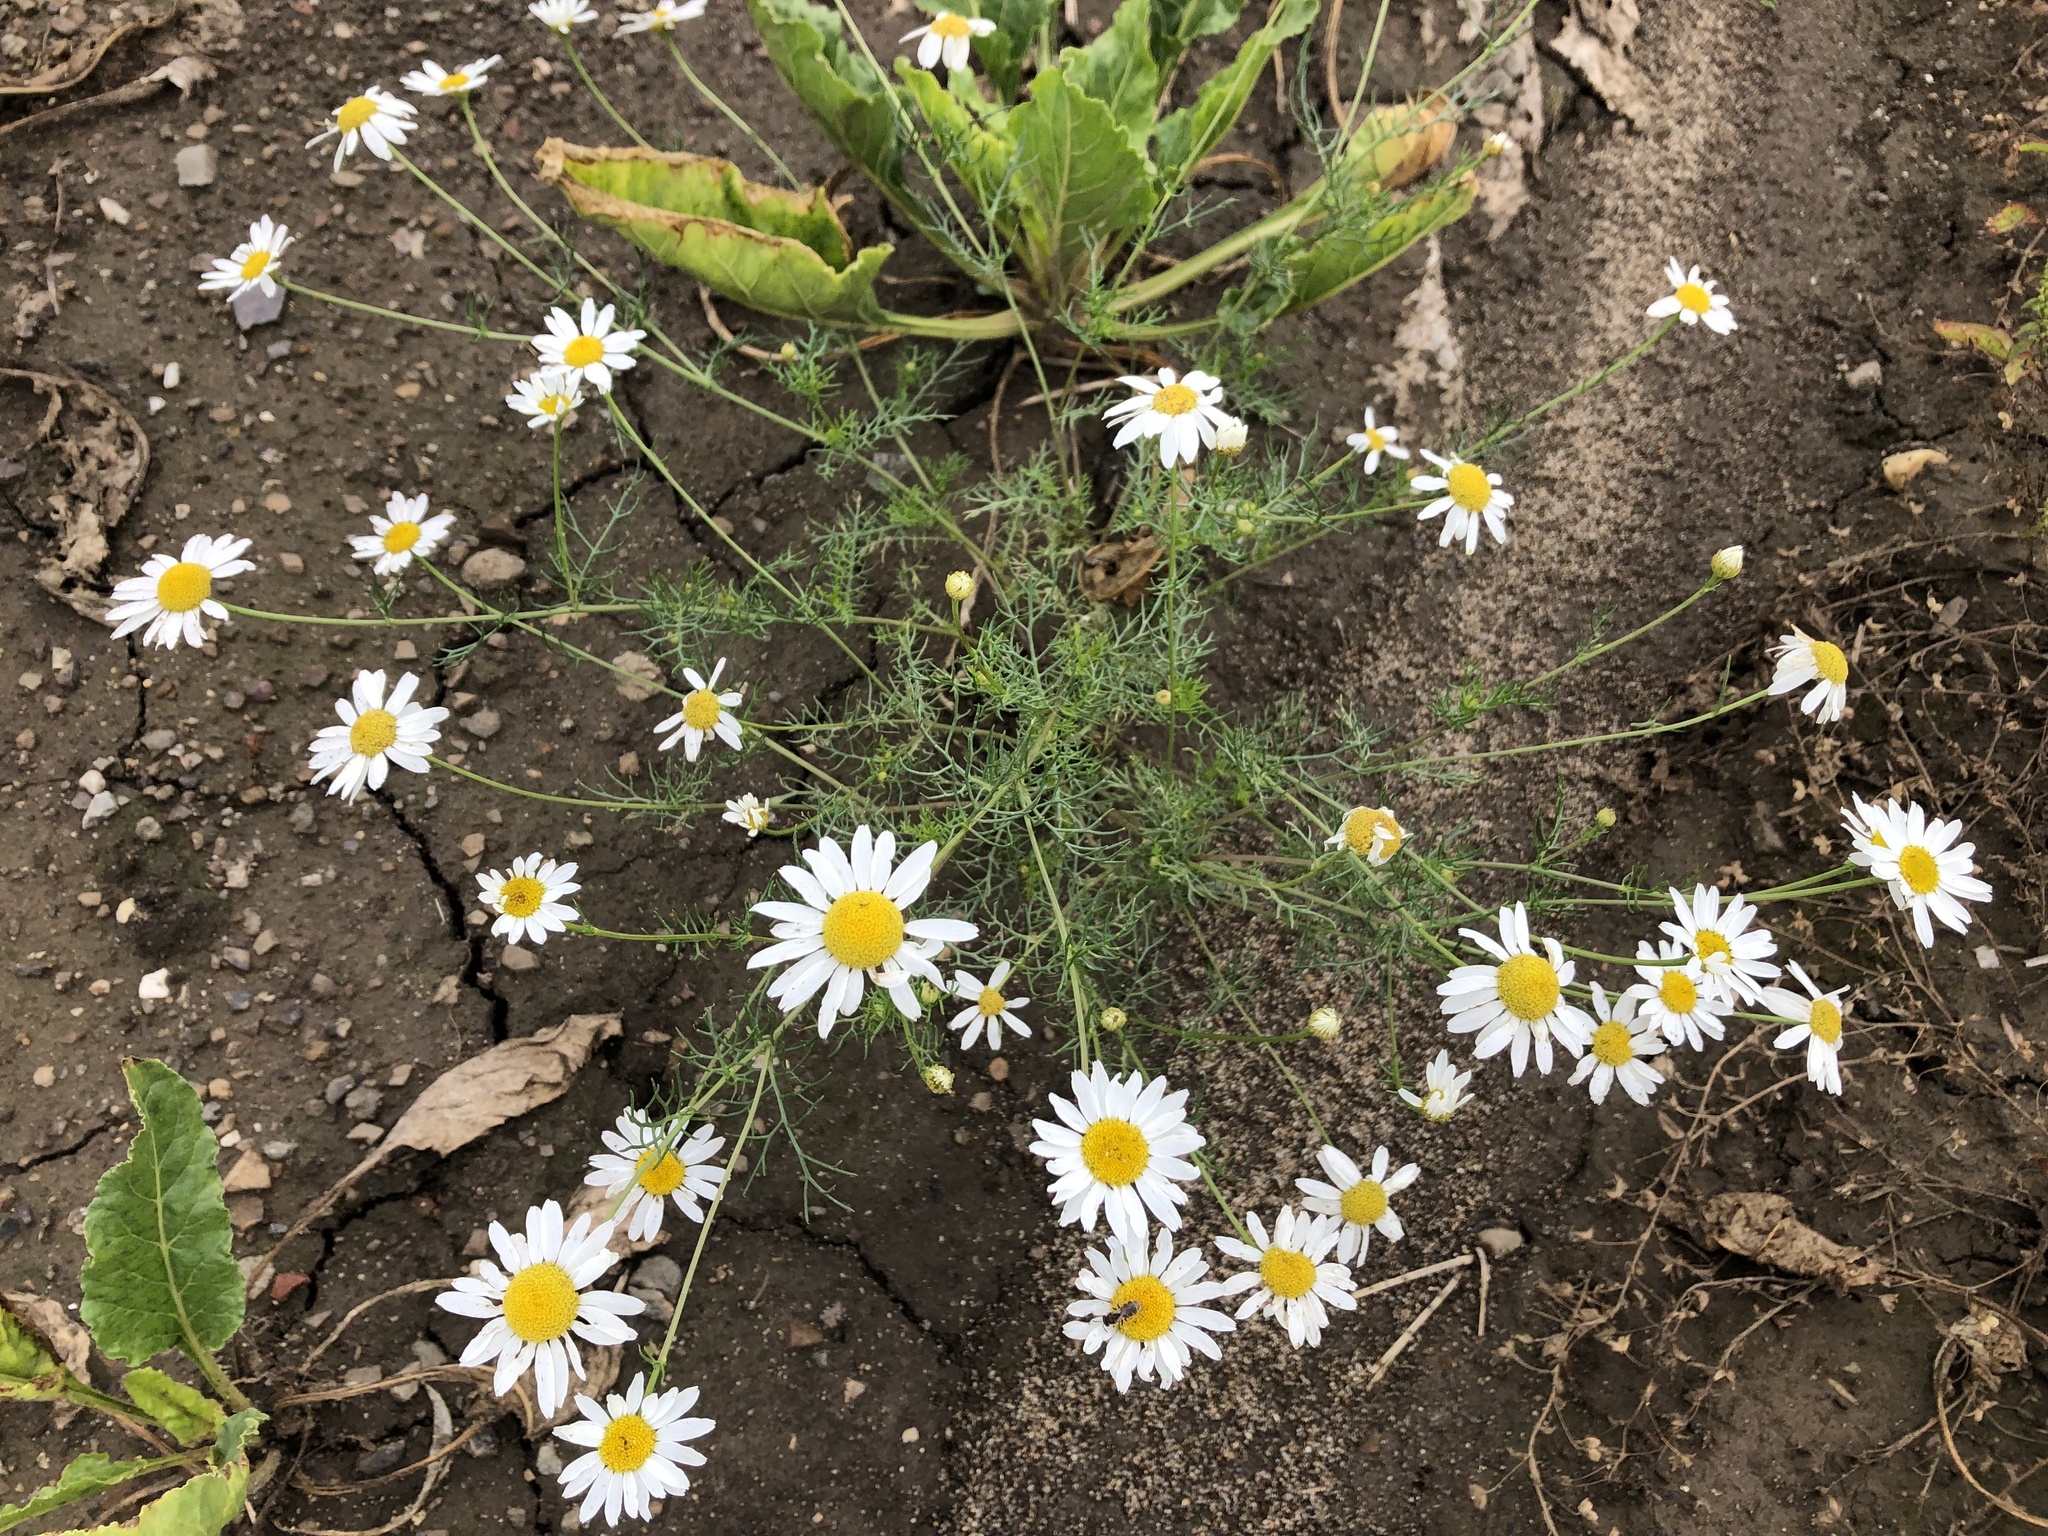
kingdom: Plantae
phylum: Tracheophyta
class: Magnoliopsida
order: Asterales
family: Asteraceae
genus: Tripleurospermum
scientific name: Tripleurospermum inodorum
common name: Scentless mayweed
